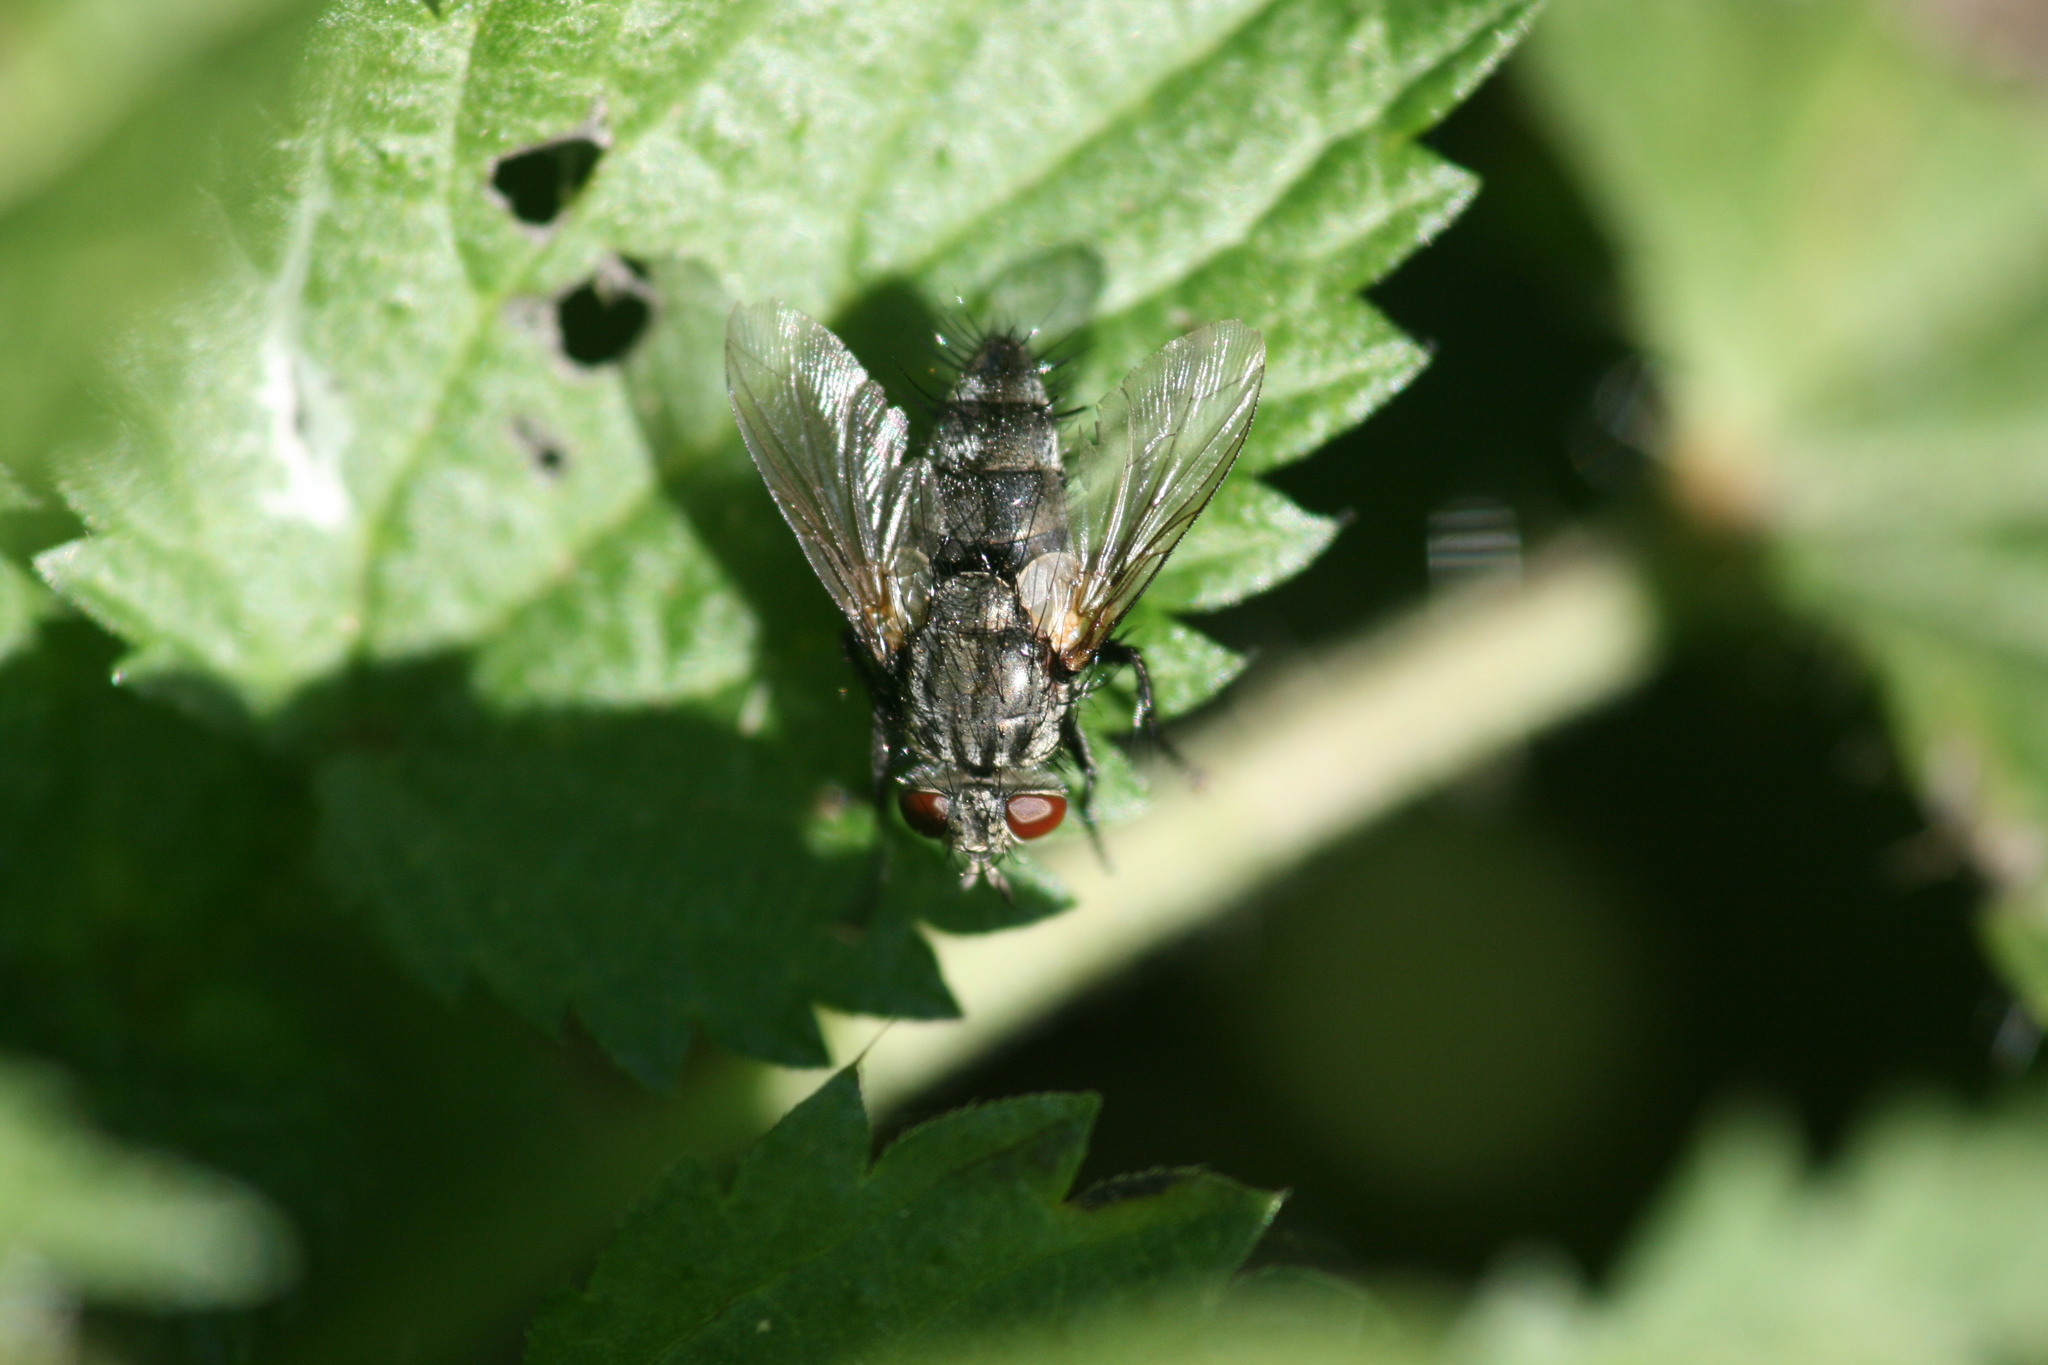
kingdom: Animalia
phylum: Arthropoda
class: Insecta
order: Diptera
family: Tachinidae
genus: Voria
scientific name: Voria ruralis
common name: Parasitic fly
